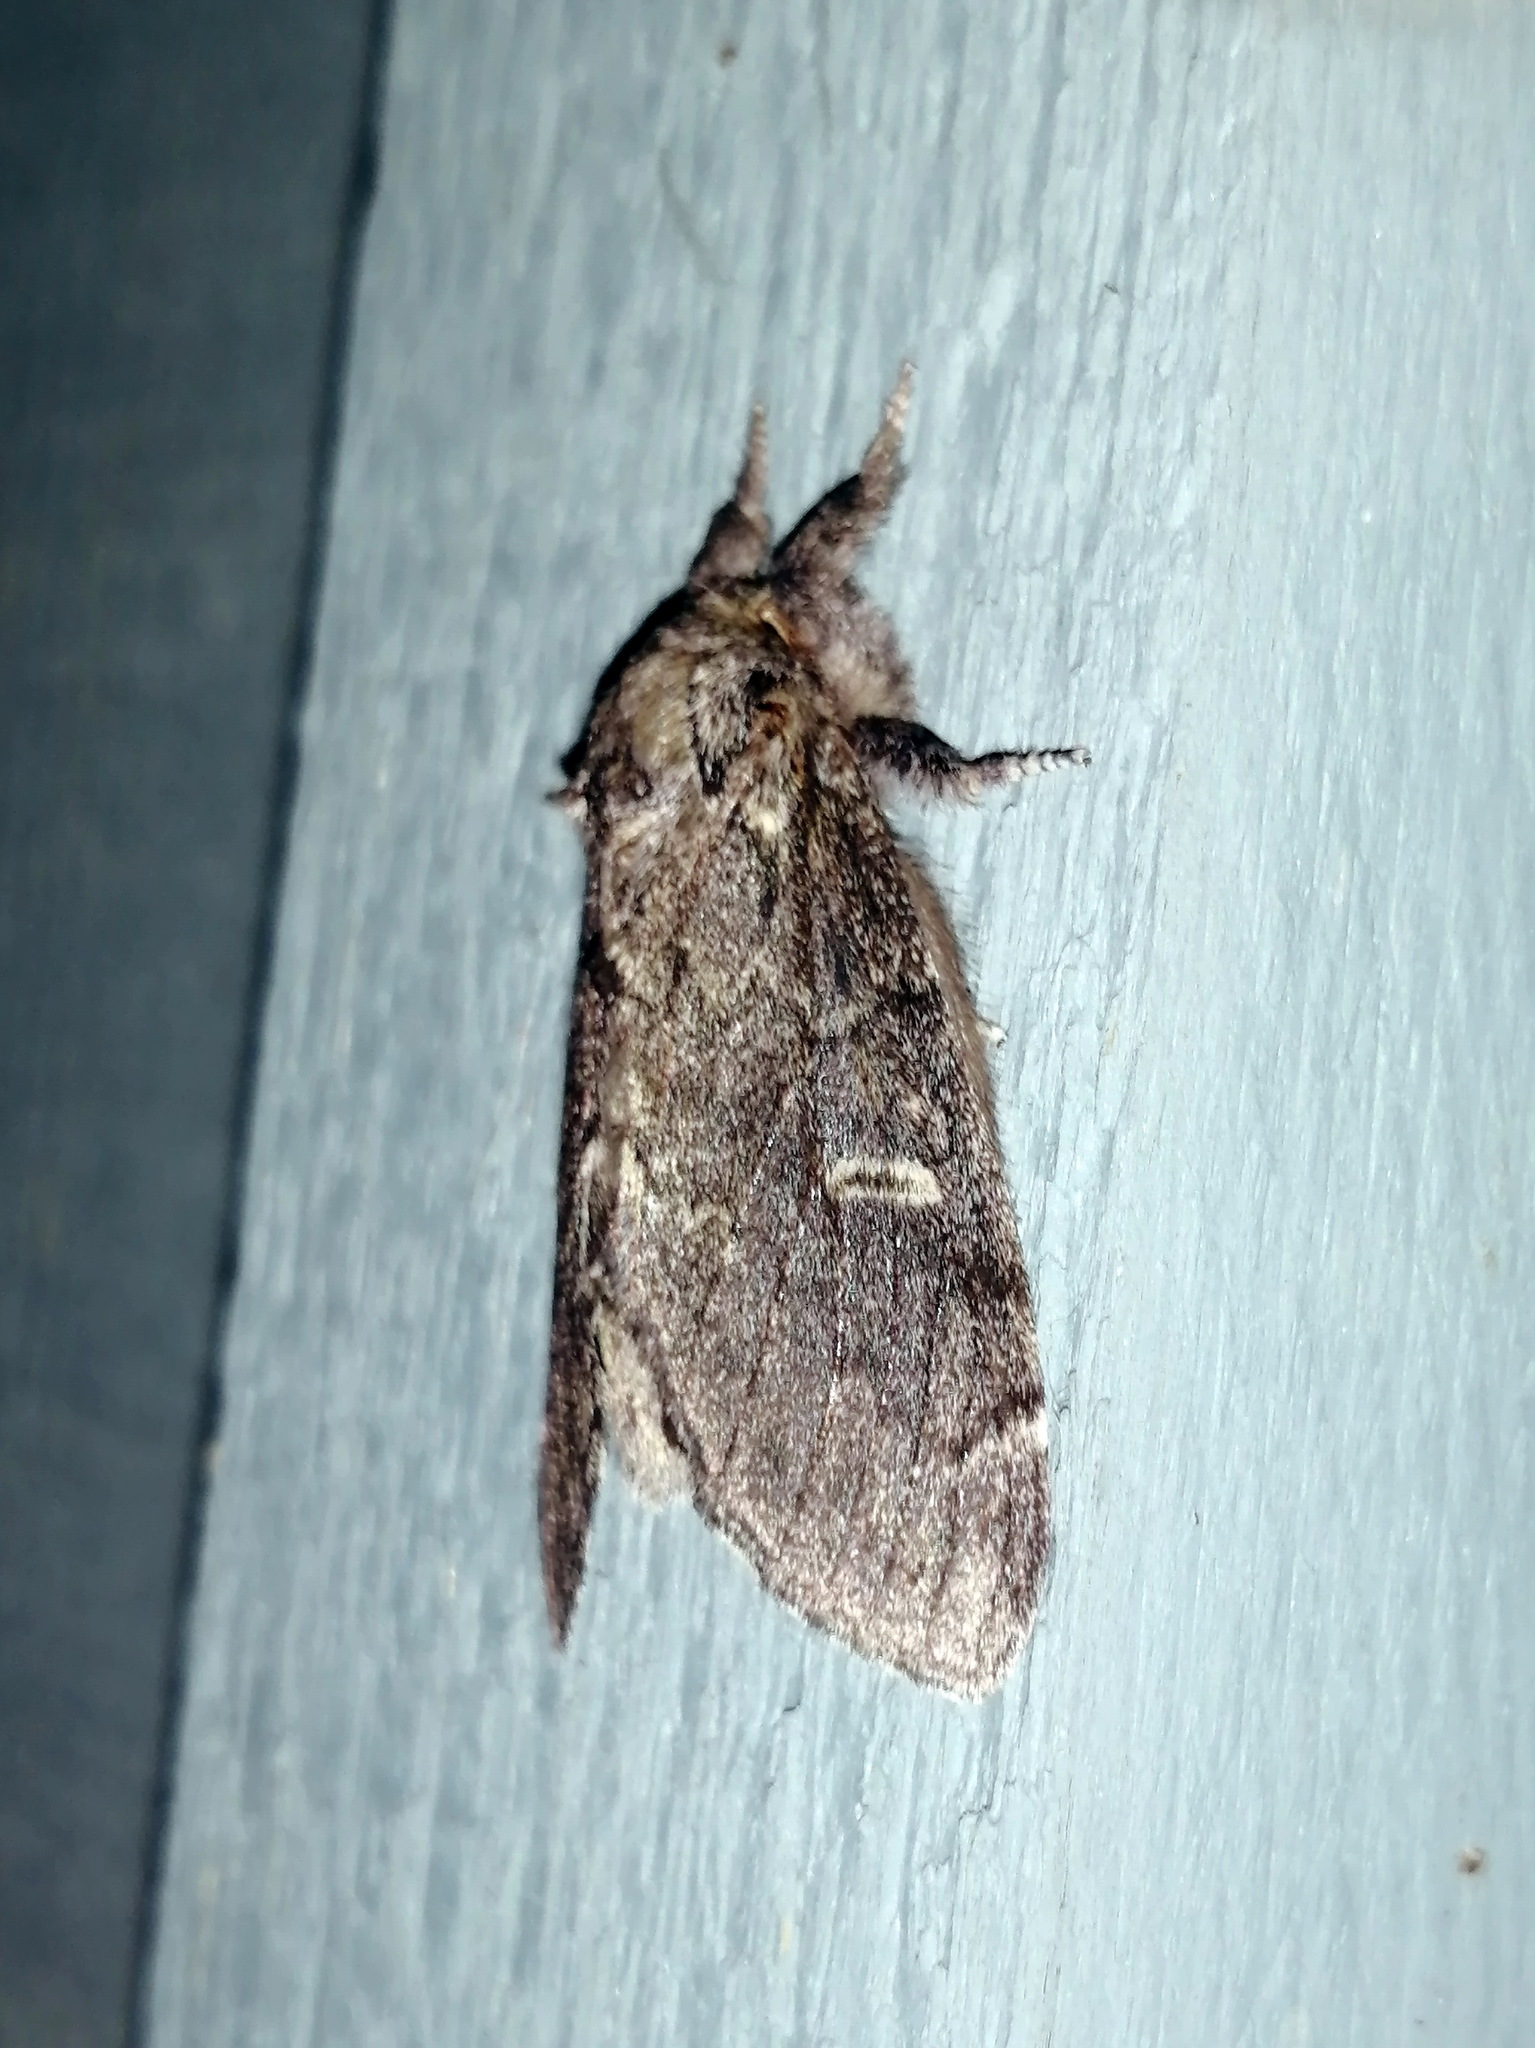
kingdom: Animalia
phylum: Arthropoda
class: Insecta
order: Lepidoptera
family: Notodontidae
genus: Notodonta
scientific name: Notodonta torva
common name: Large dark prominent
